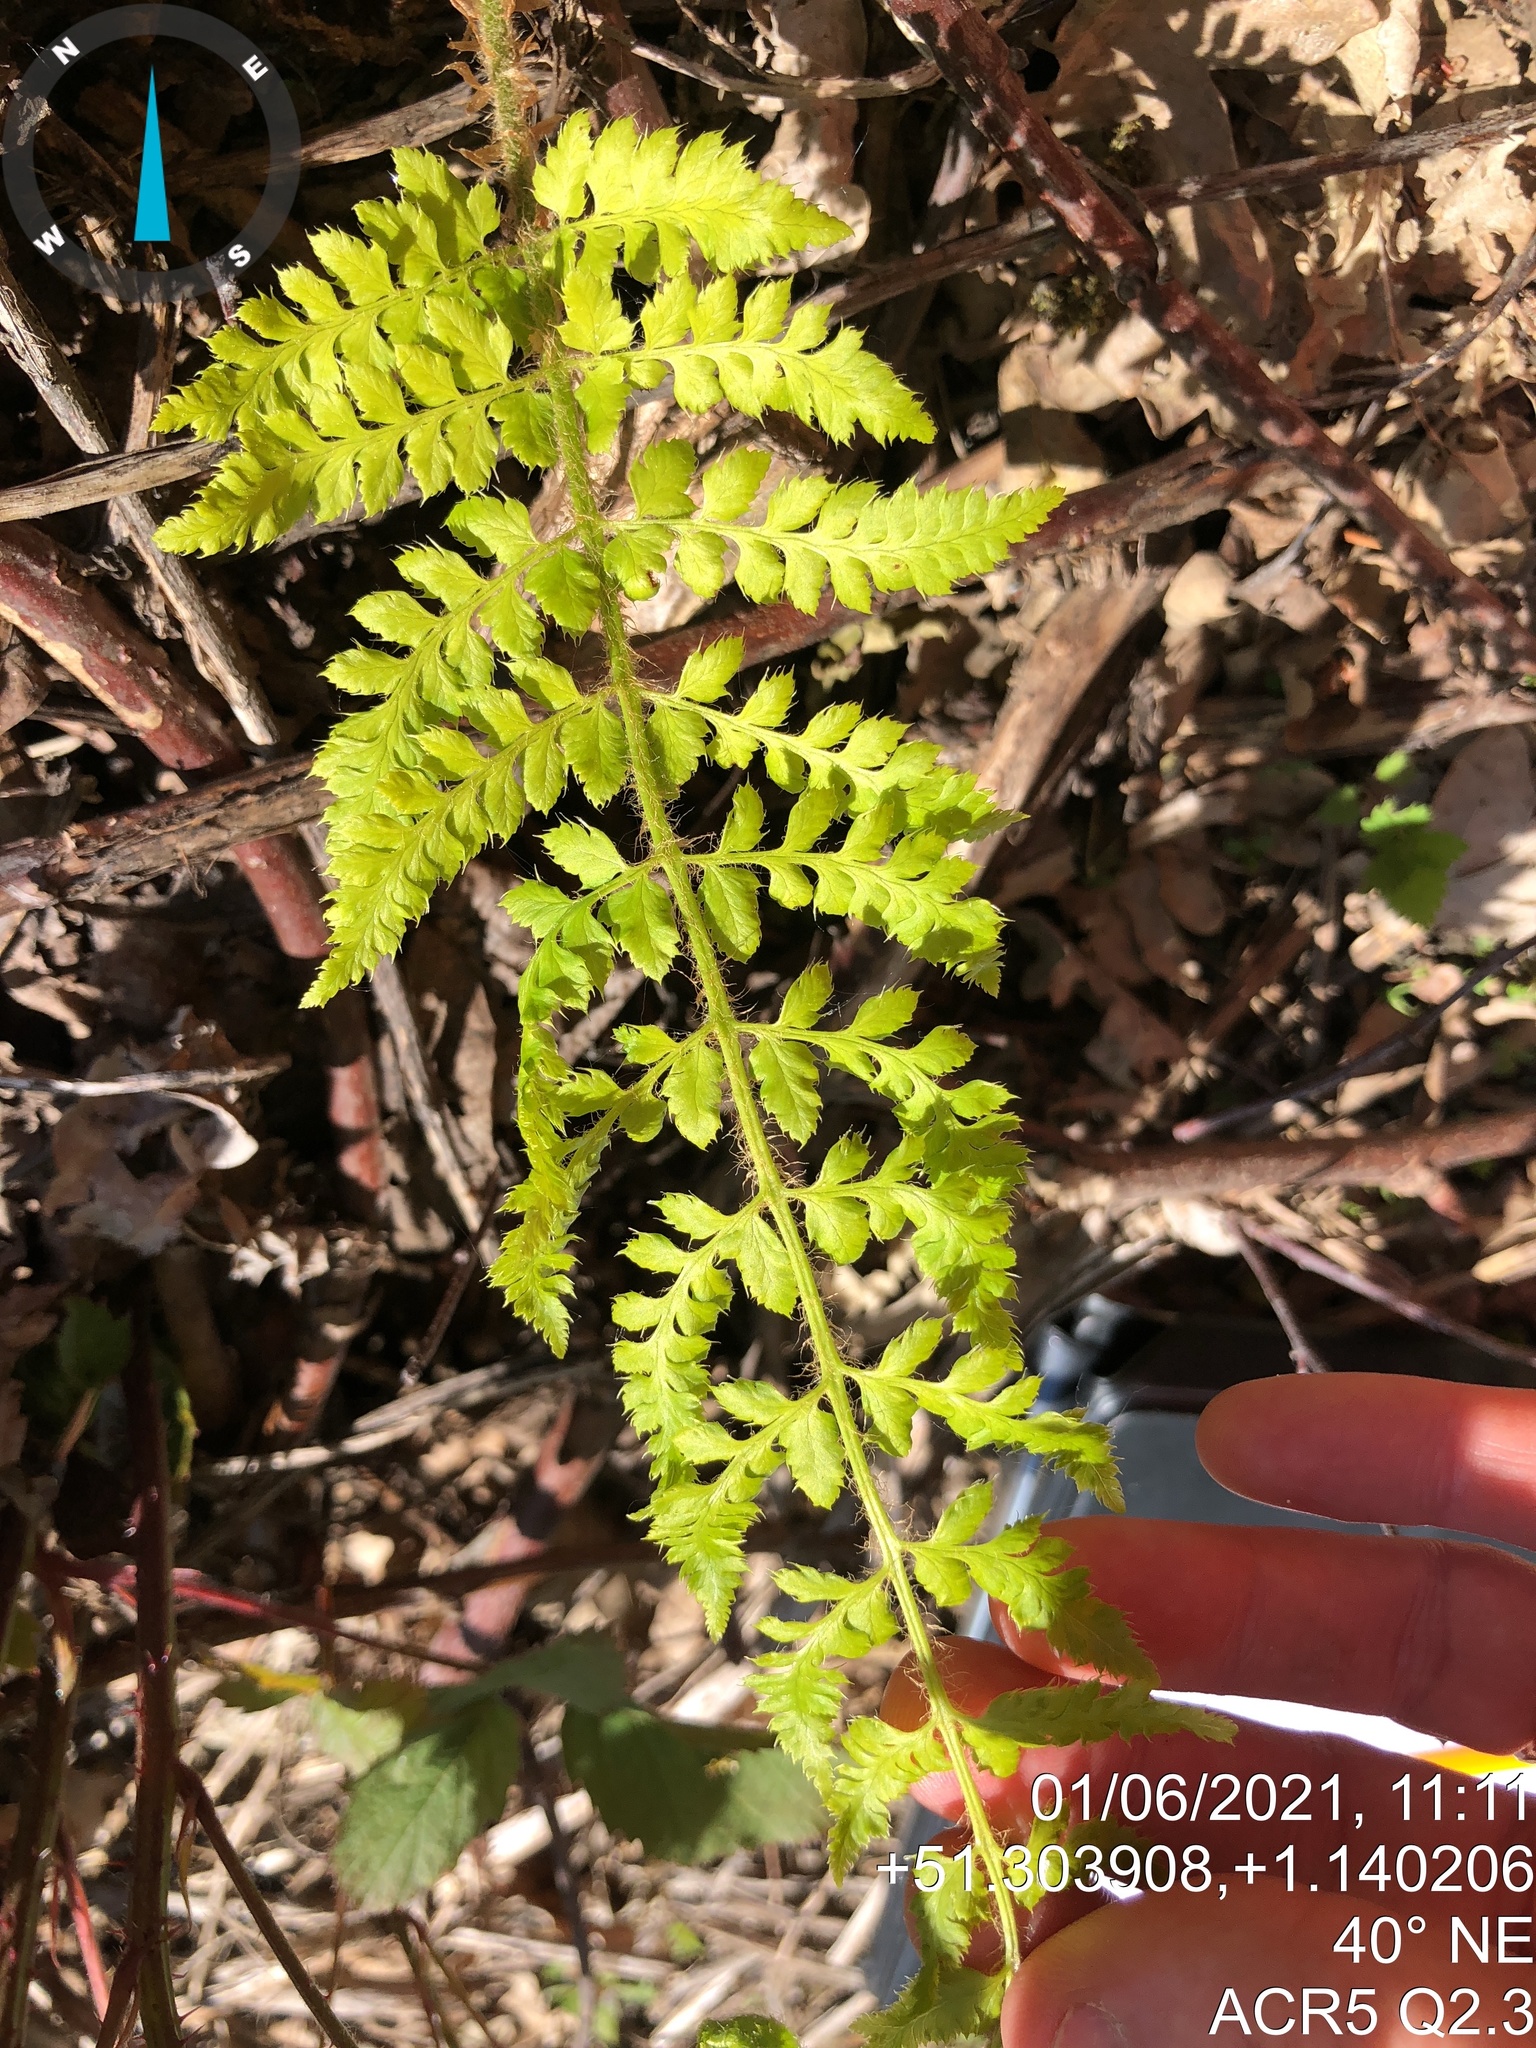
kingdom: Plantae
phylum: Tracheophyta
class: Polypodiopsida
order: Polypodiales
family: Dryopteridaceae
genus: Polystichum
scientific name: Polystichum setiferum
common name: Soft shield-fern
